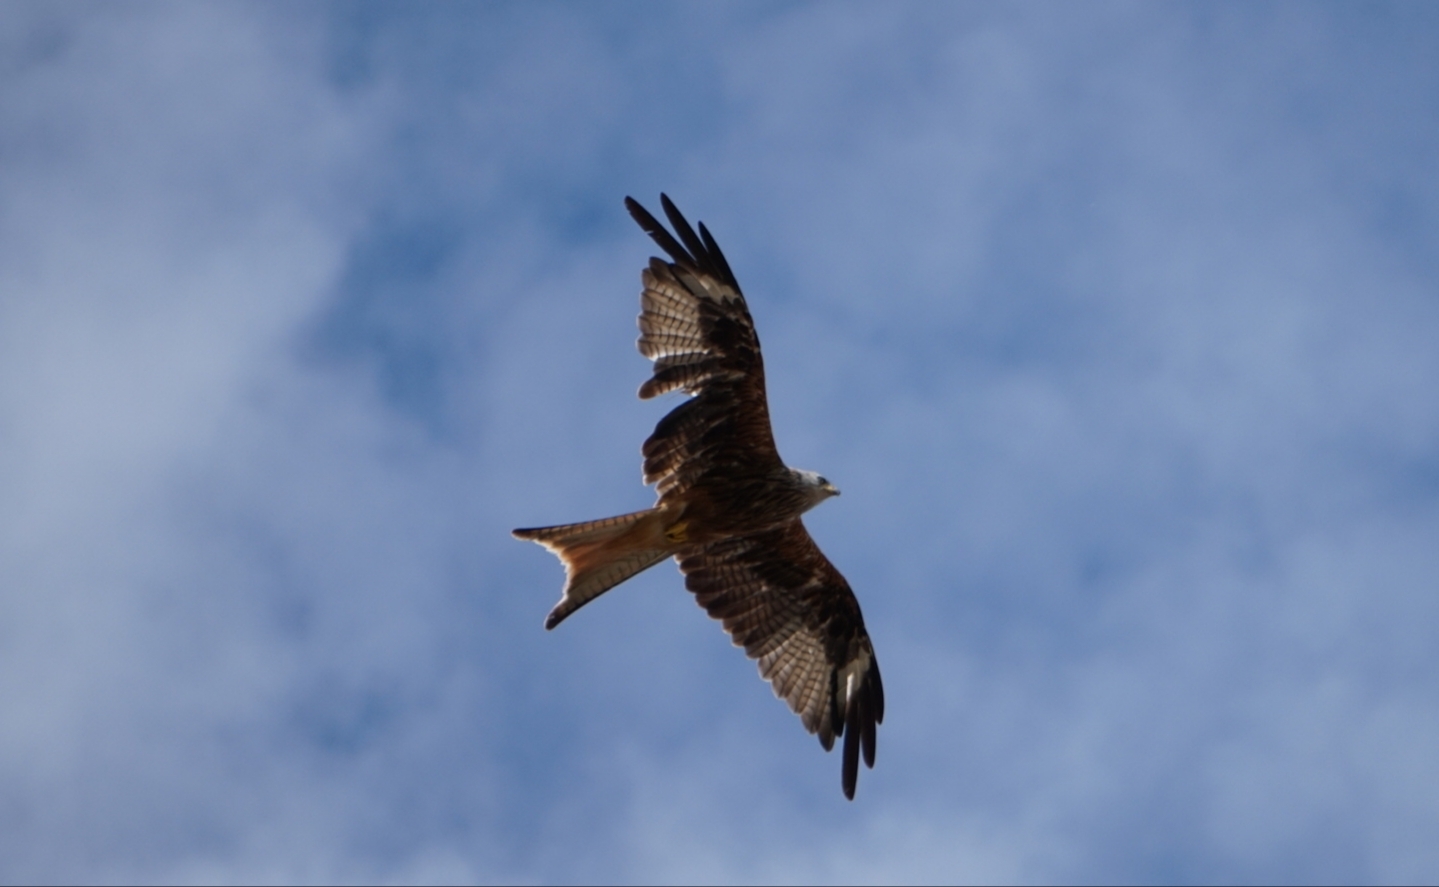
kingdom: Animalia
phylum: Chordata
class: Aves
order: Accipitriformes
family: Accipitridae
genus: Milvus
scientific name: Milvus milvus
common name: Red kite
